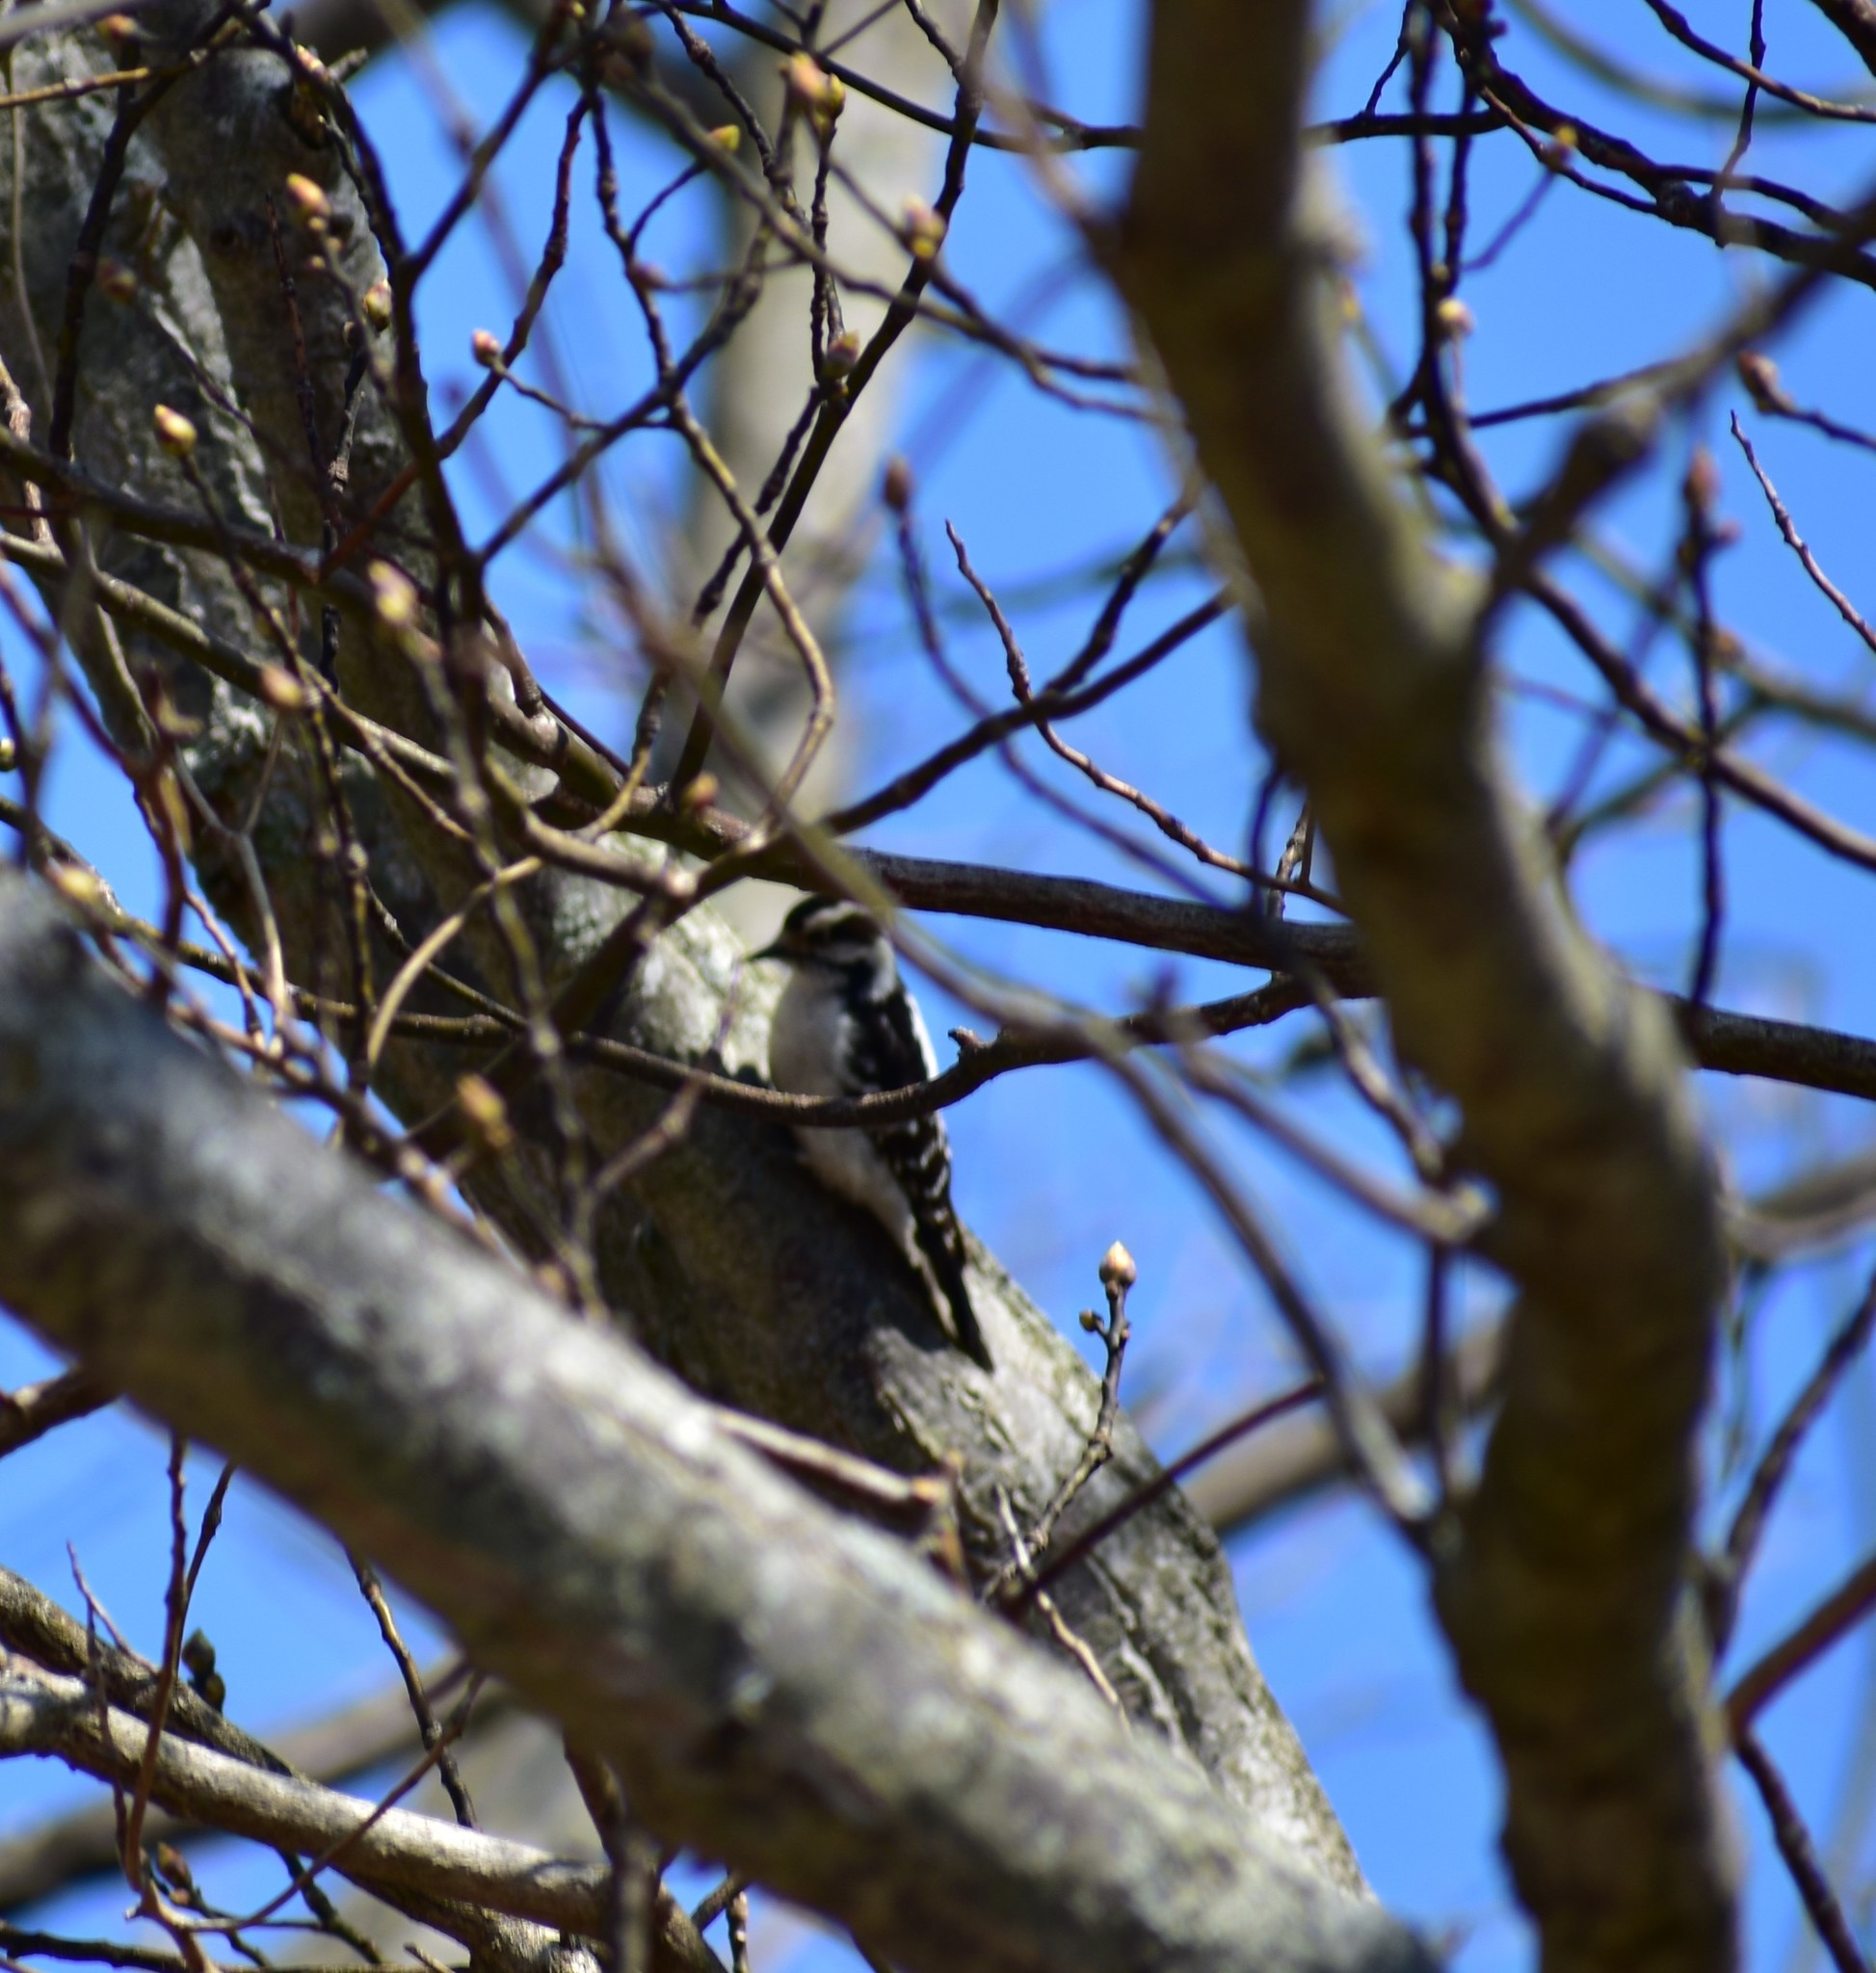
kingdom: Animalia
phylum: Chordata
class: Aves
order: Piciformes
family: Picidae
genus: Dryobates
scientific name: Dryobates pubescens
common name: Downy woodpecker
